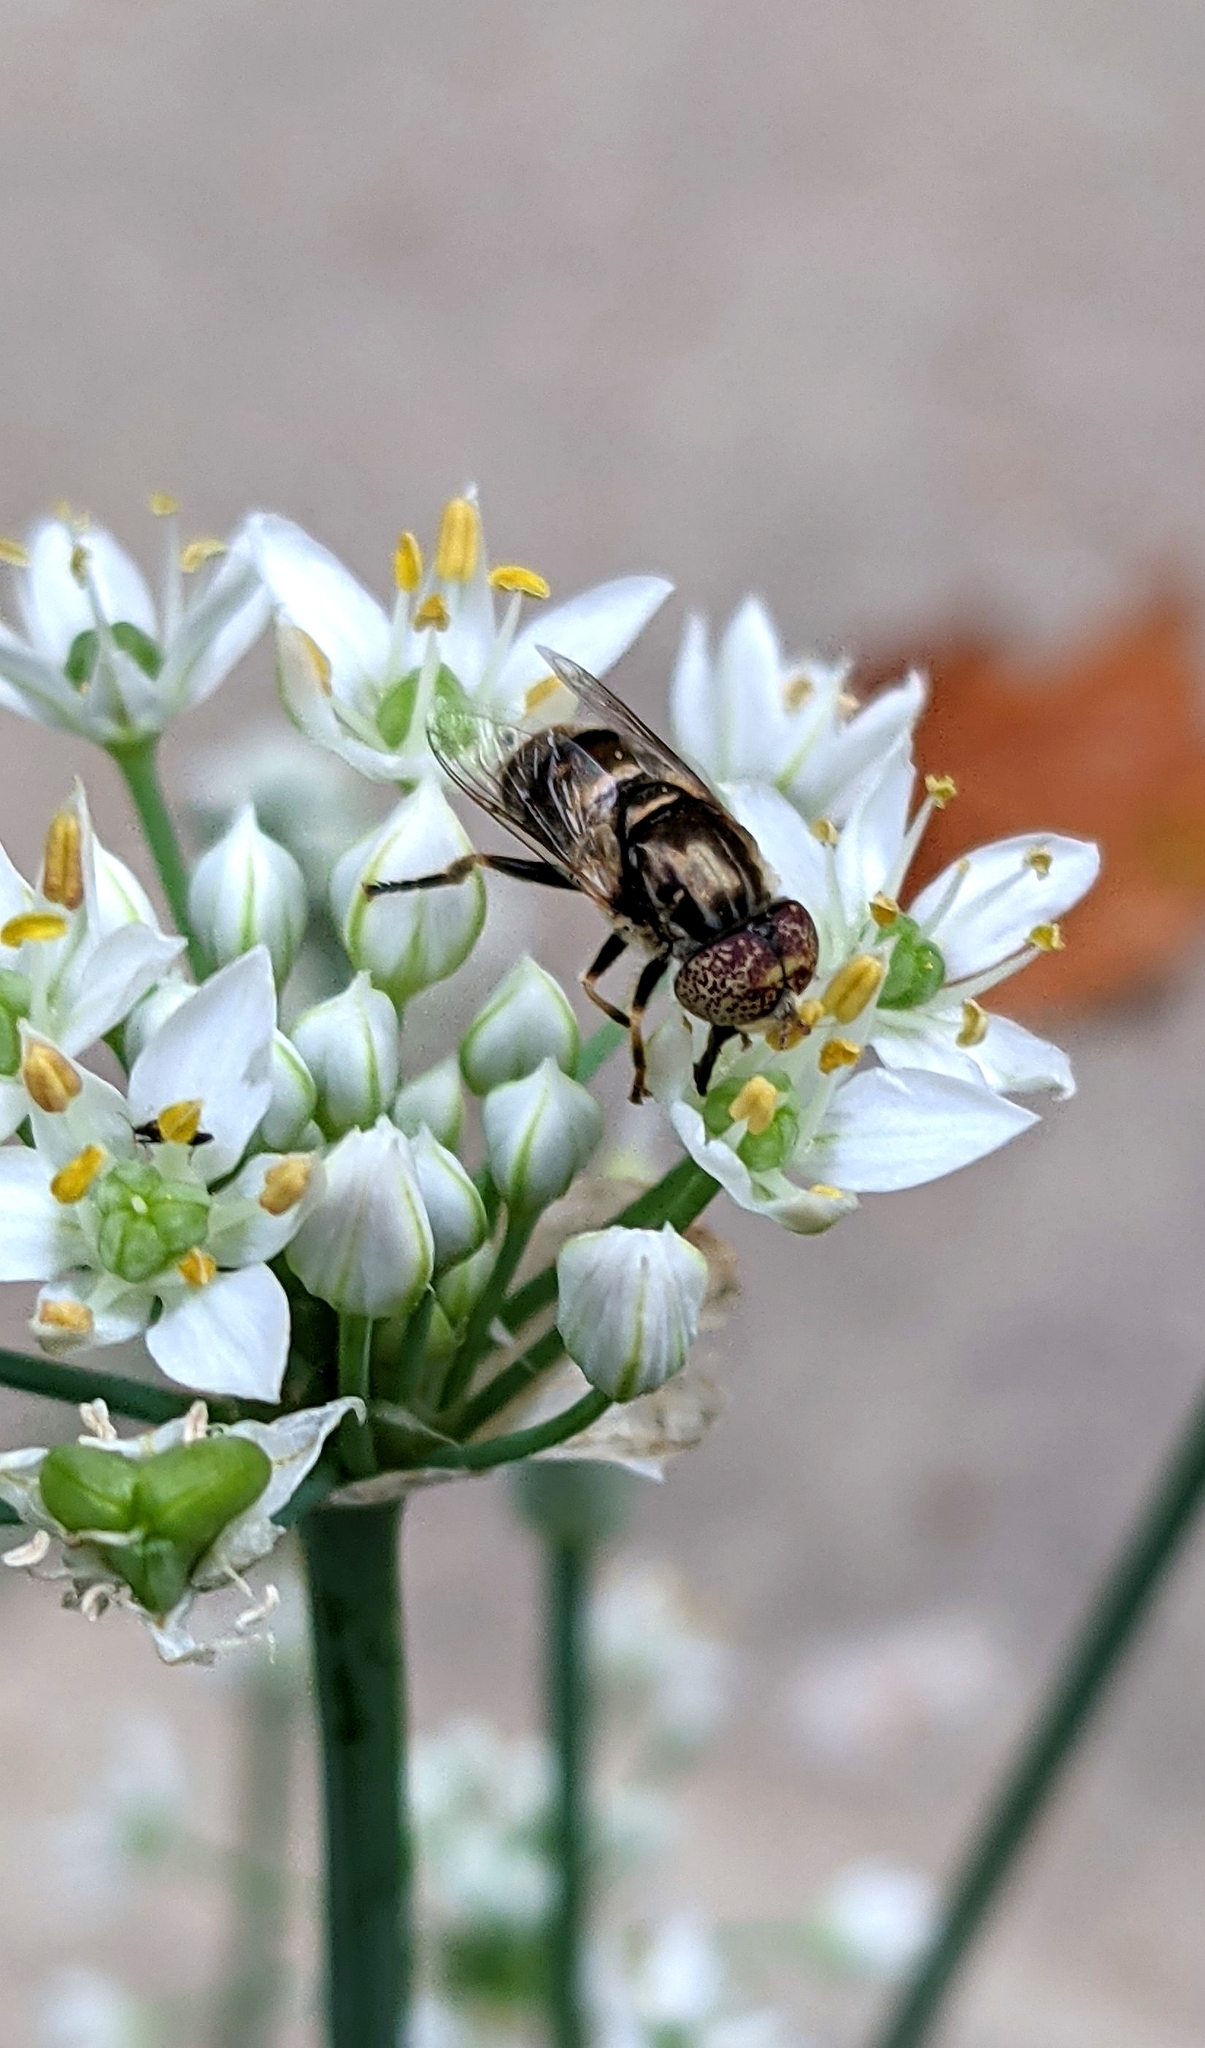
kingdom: Animalia
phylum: Arthropoda
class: Insecta
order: Diptera
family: Syrphidae
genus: Eristalinus
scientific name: Eristalinus aeneus
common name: Syrphid fly
